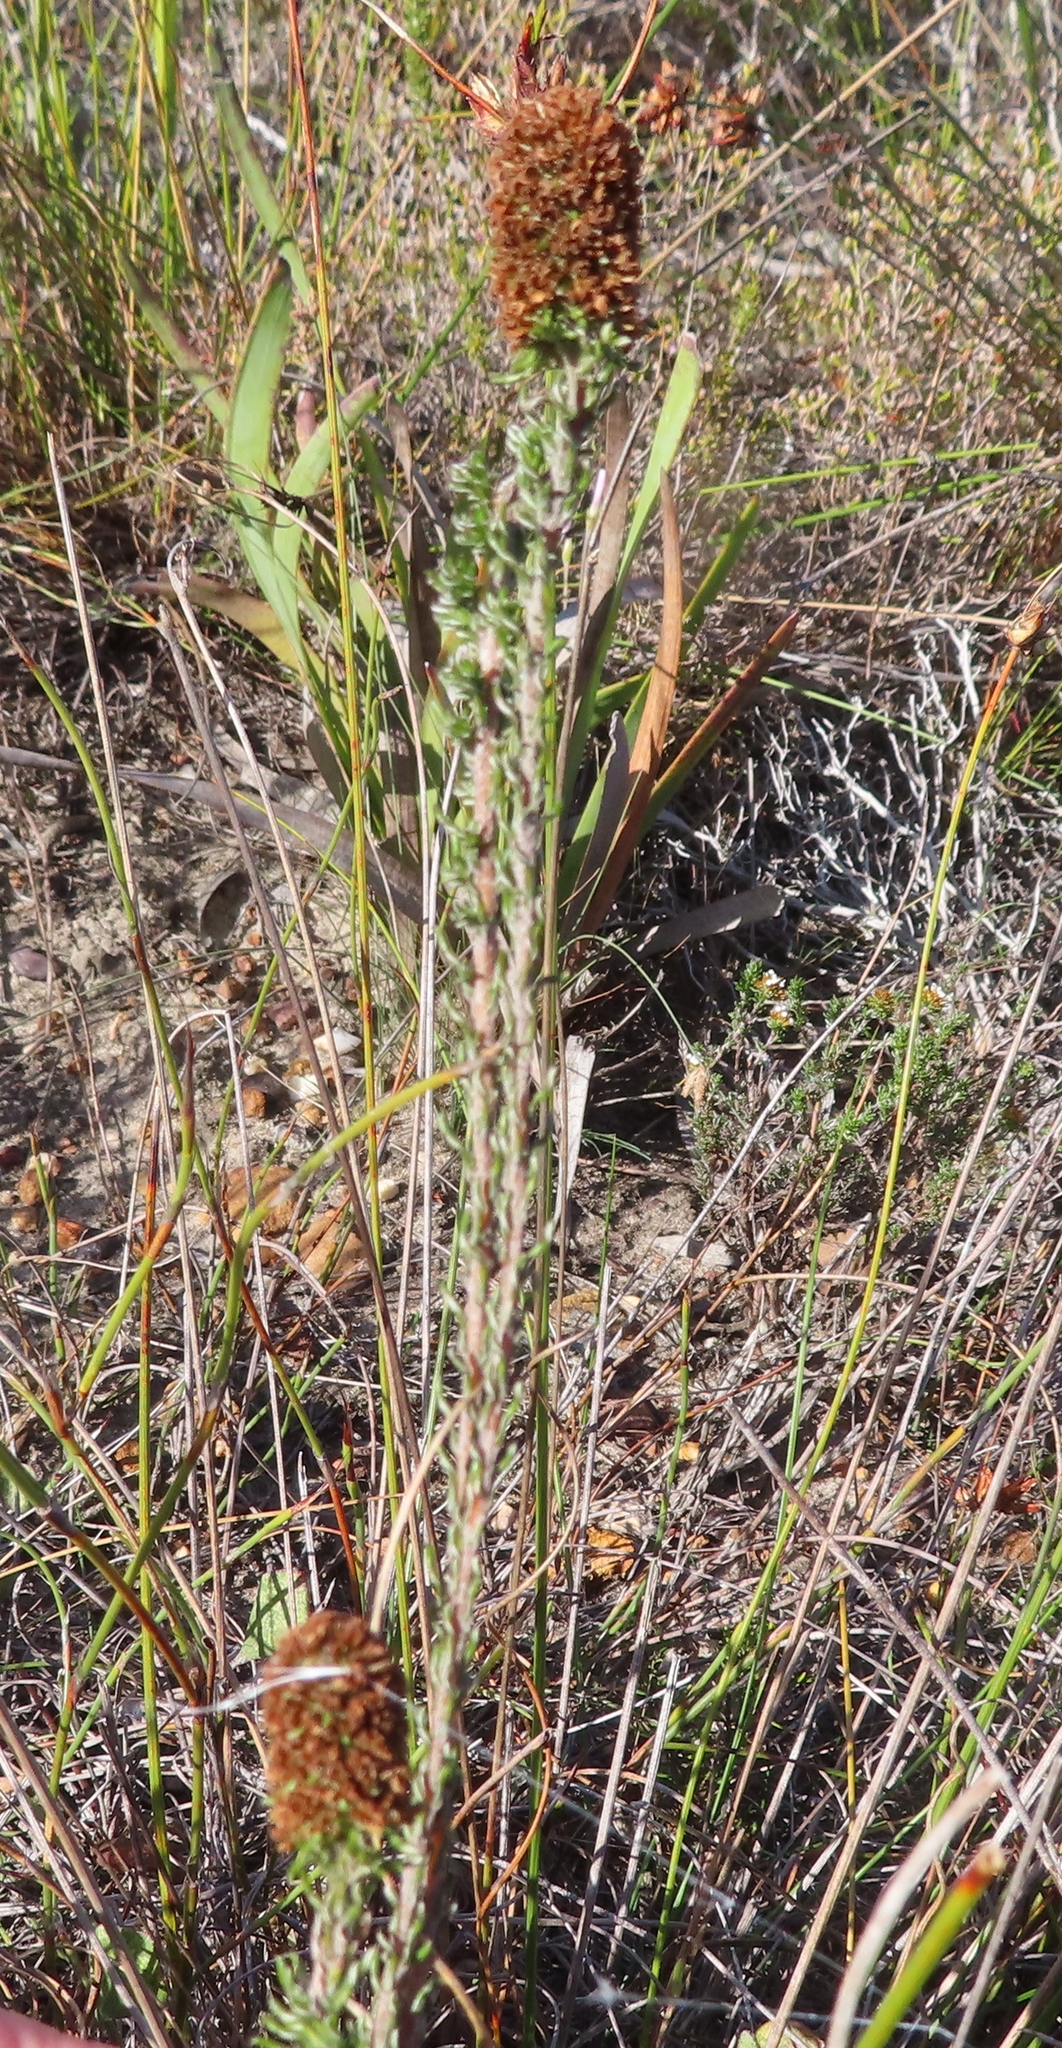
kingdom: Plantae
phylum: Tracheophyta
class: Magnoliopsida
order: Asterales
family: Asteraceae
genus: Stoebe
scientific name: Stoebe capitata
